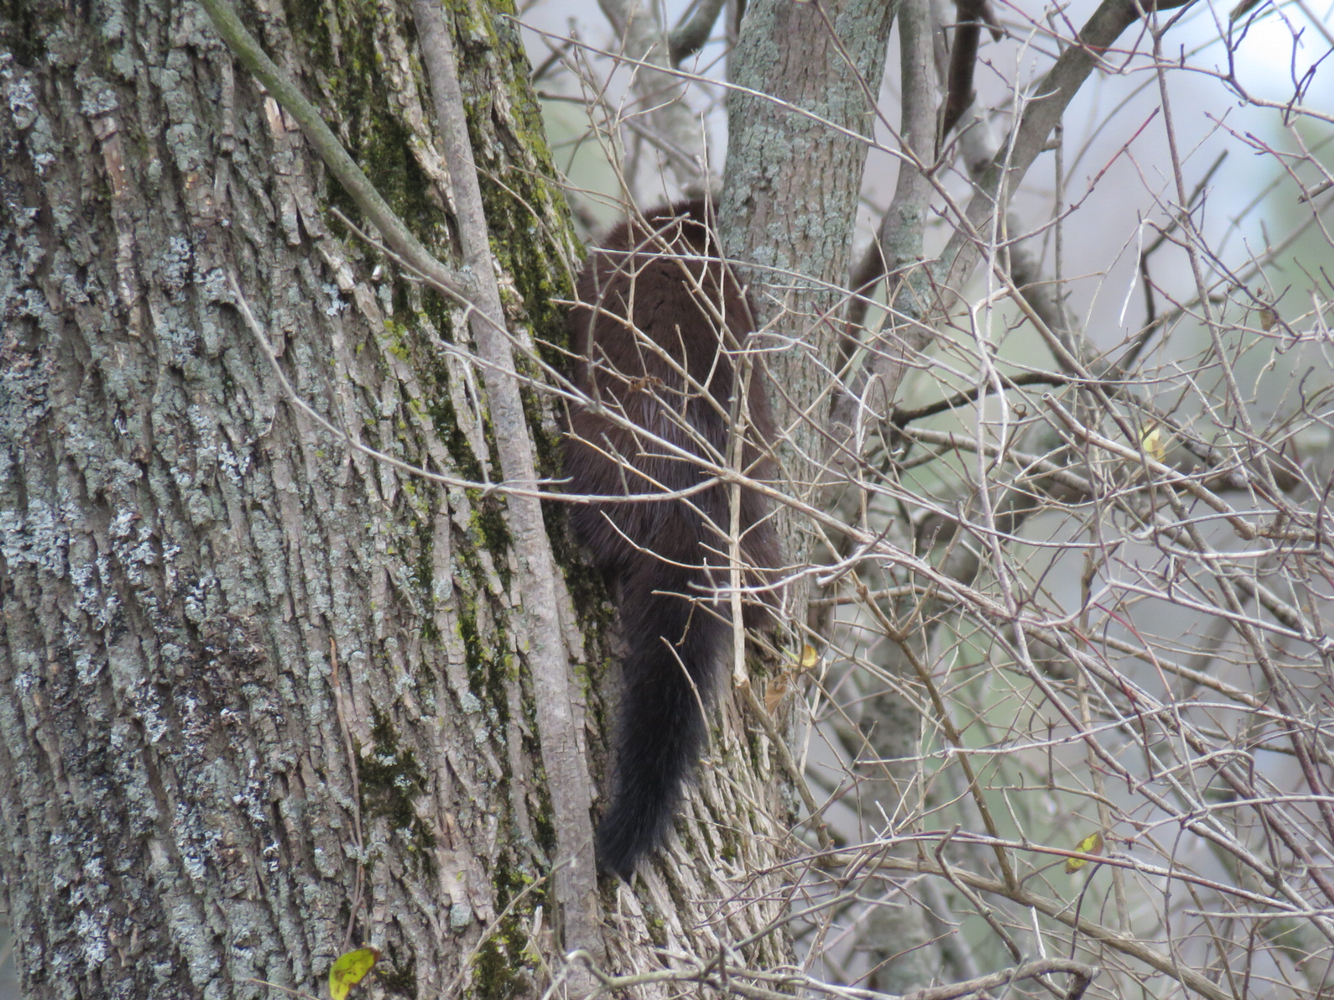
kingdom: Animalia
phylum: Chordata
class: Mammalia
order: Carnivora
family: Mustelidae
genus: Mustela
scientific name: Mustela
